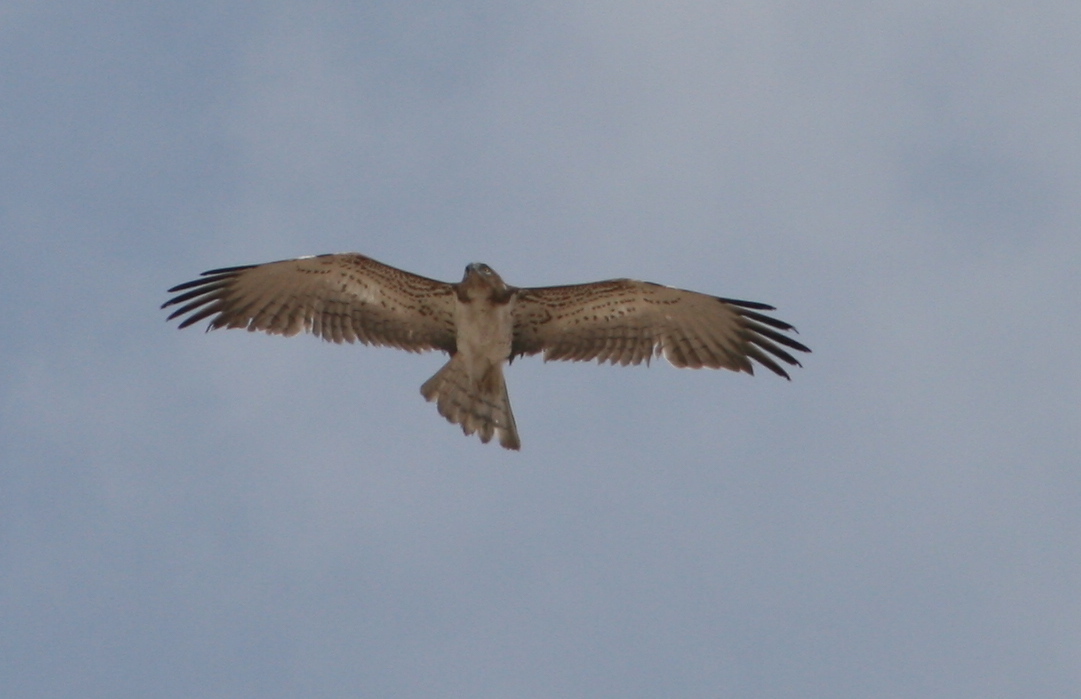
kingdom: Animalia
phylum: Chordata
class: Aves
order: Accipitriformes
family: Accipitridae
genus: Circaetus
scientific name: Circaetus gallicus
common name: Short-toed snake eagle
